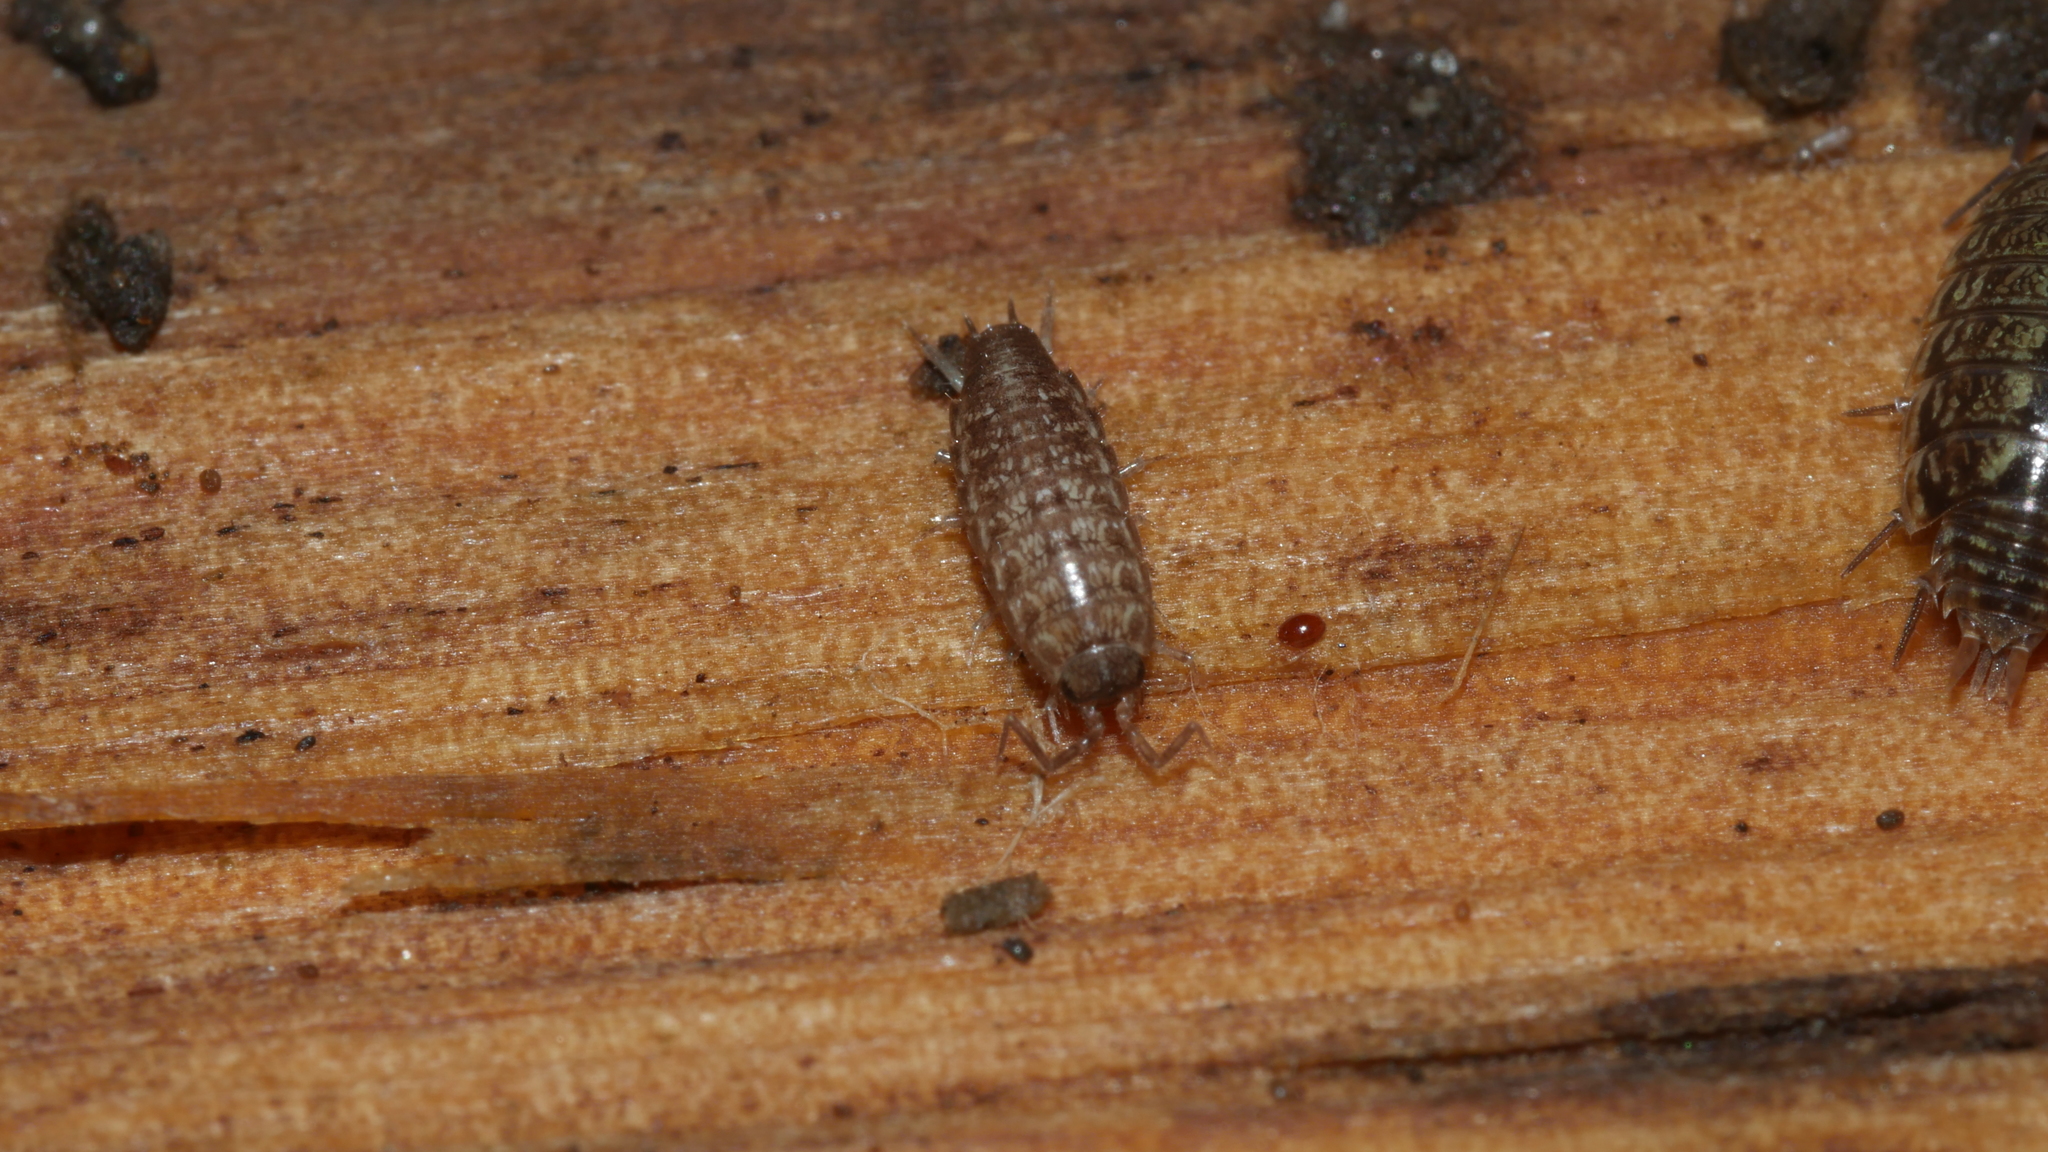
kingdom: Animalia
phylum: Arthropoda
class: Malacostraca
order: Isopoda
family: Philosciidae
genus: Chaetophiloscia
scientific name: Chaetophiloscia sicula
